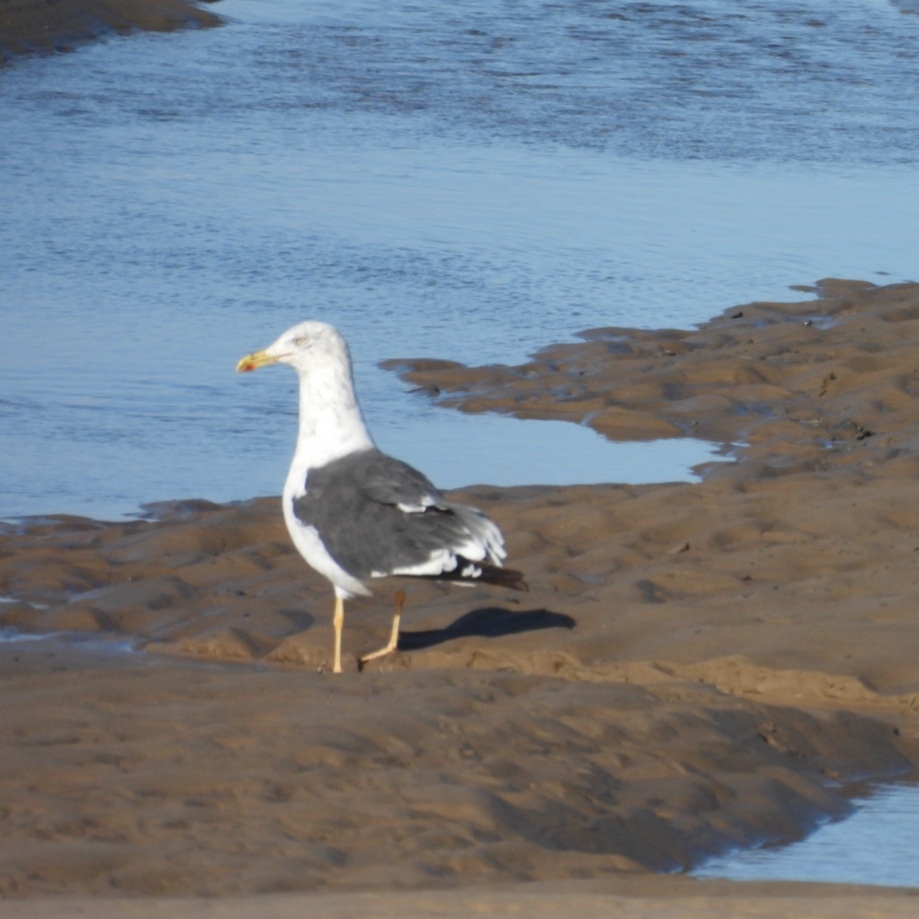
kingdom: Animalia
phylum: Chordata
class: Aves
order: Charadriiformes
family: Laridae
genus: Larus
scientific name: Larus fuscus
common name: Lesser black-backed gull
